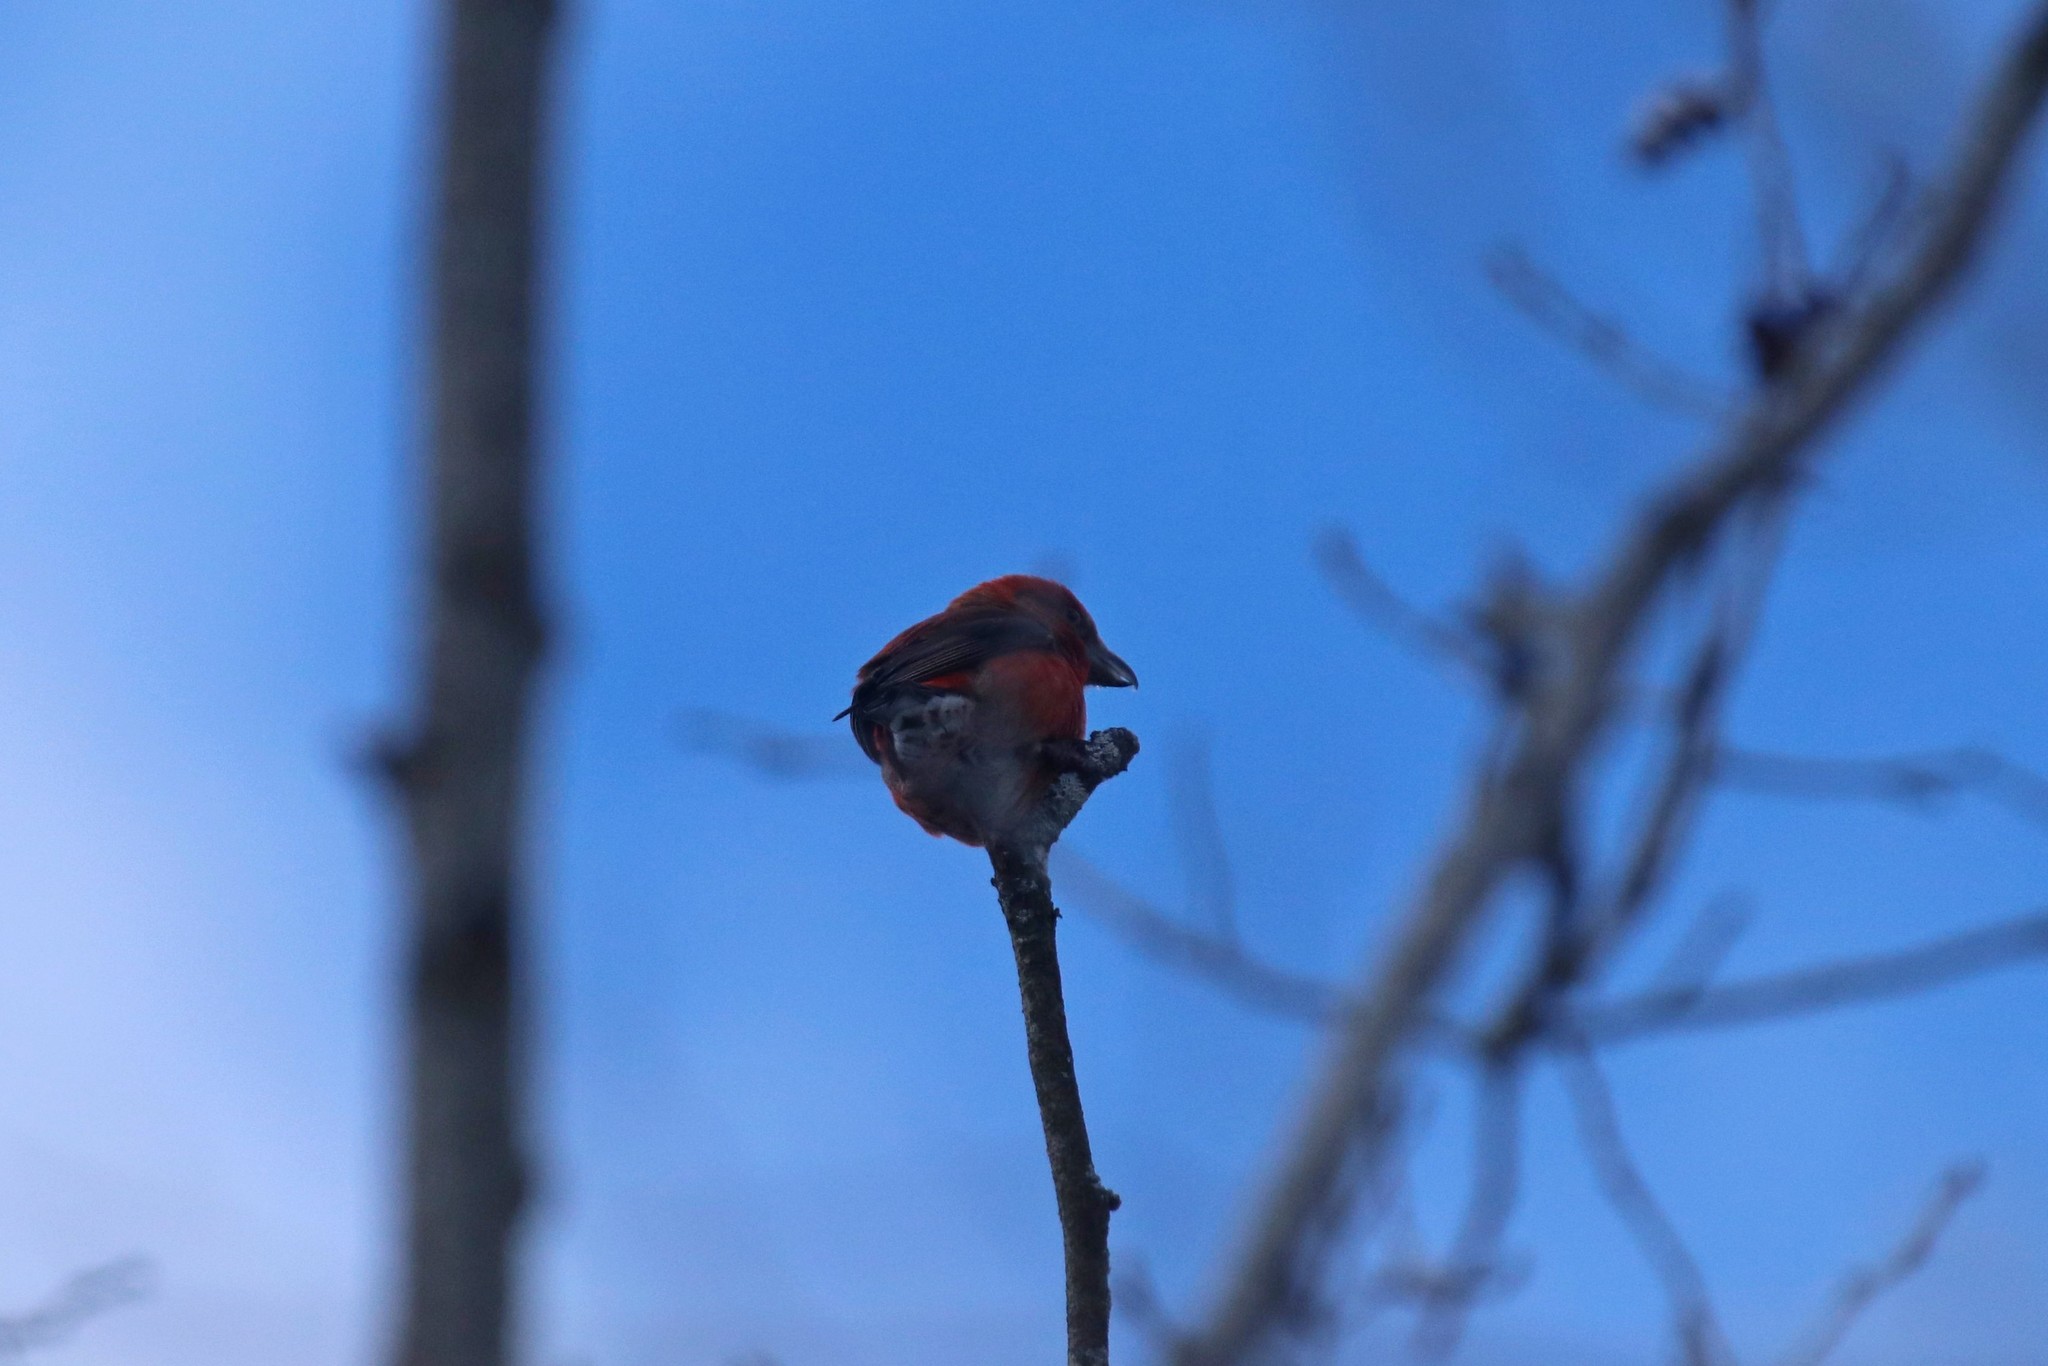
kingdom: Animalia
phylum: Chordata
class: Aves
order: Passeriformes
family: Fringillidae
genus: Loxia
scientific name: Loxia curvirostra
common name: Red crossbill
